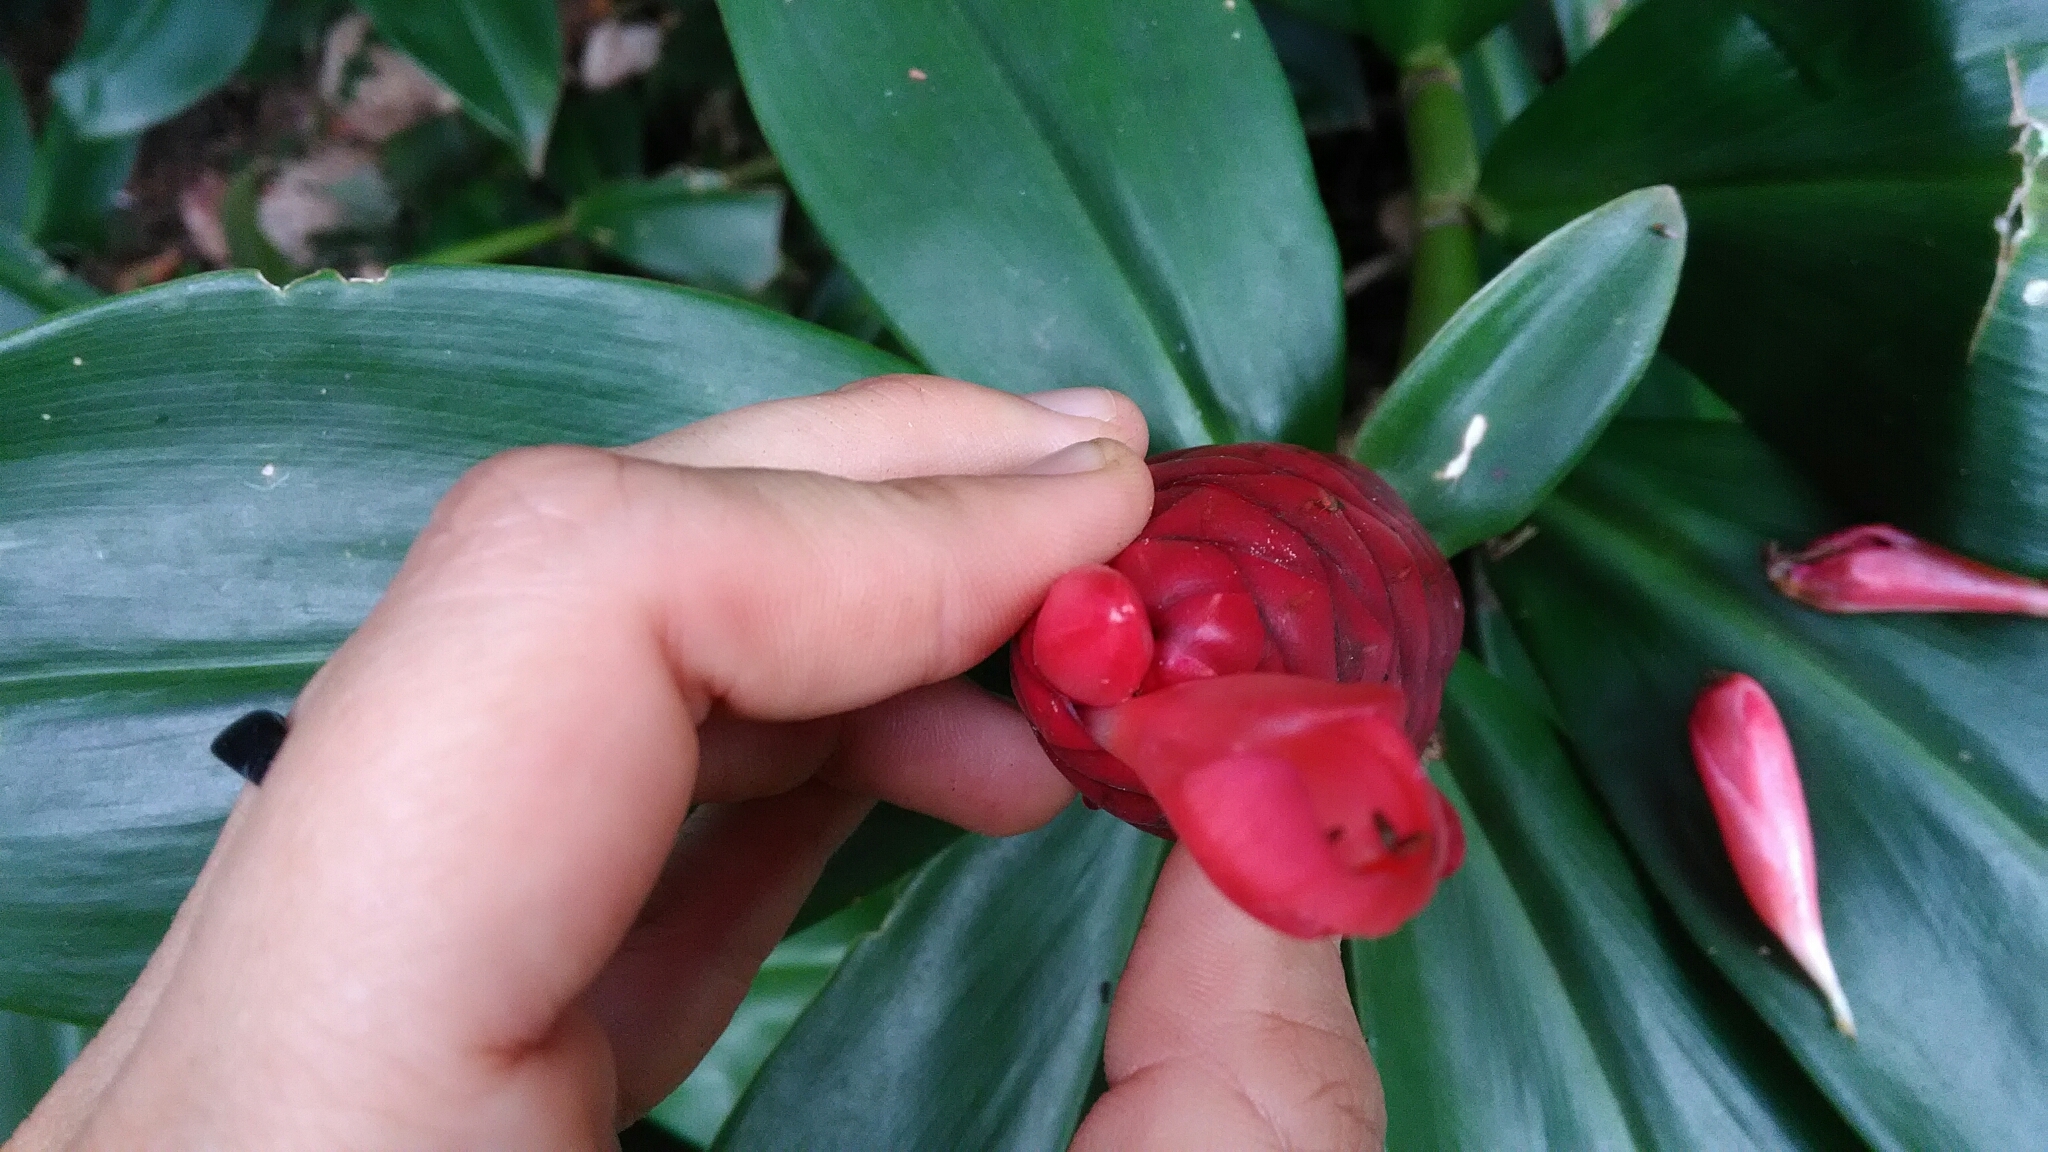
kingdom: Plantae
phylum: Tracheophyta
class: Liliopsida
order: Zingiberales
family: Costaceae
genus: Costus
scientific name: Costus spiralis
